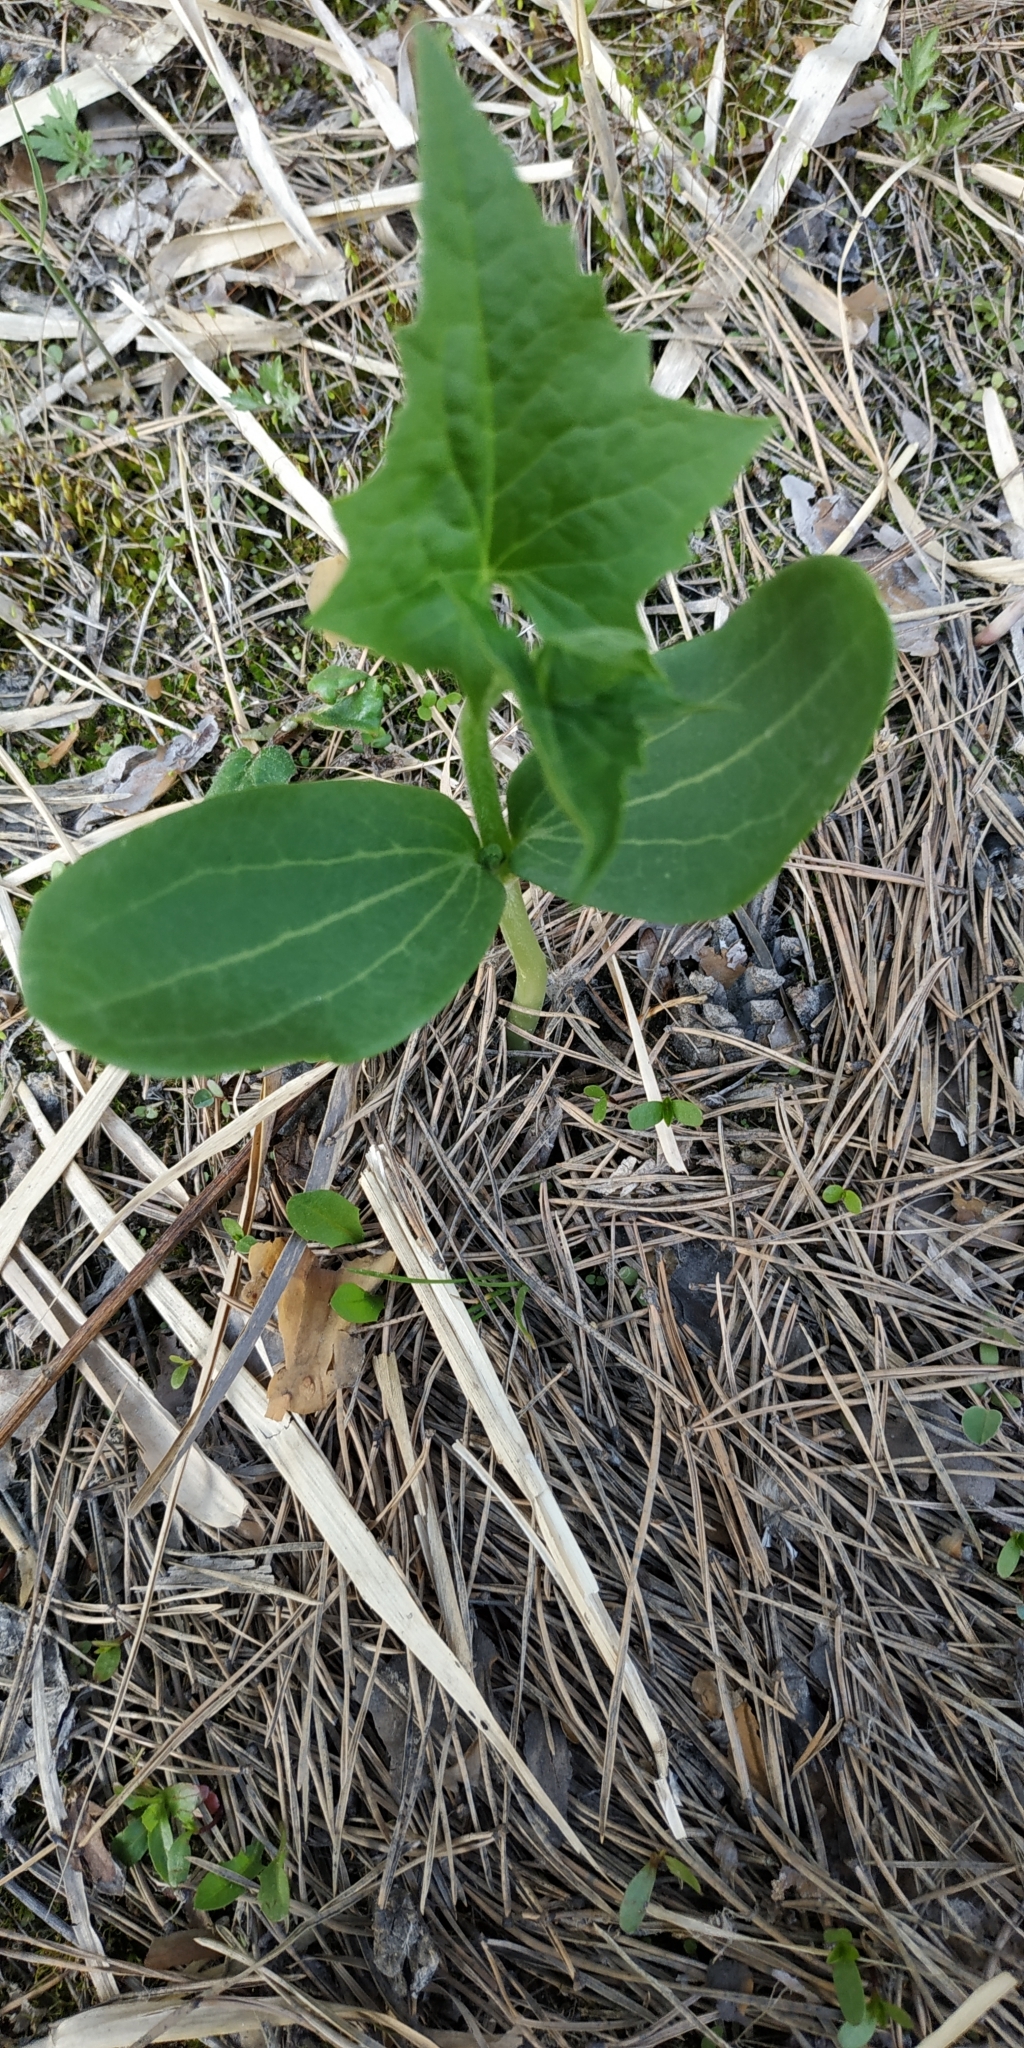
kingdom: Plantae
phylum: Tracheophyta
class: Magnoliopsida
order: Cucurbitales
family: Cucurbitaceae
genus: Echinocystis
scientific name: Echinocystis lobata
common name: Wild cucumber
